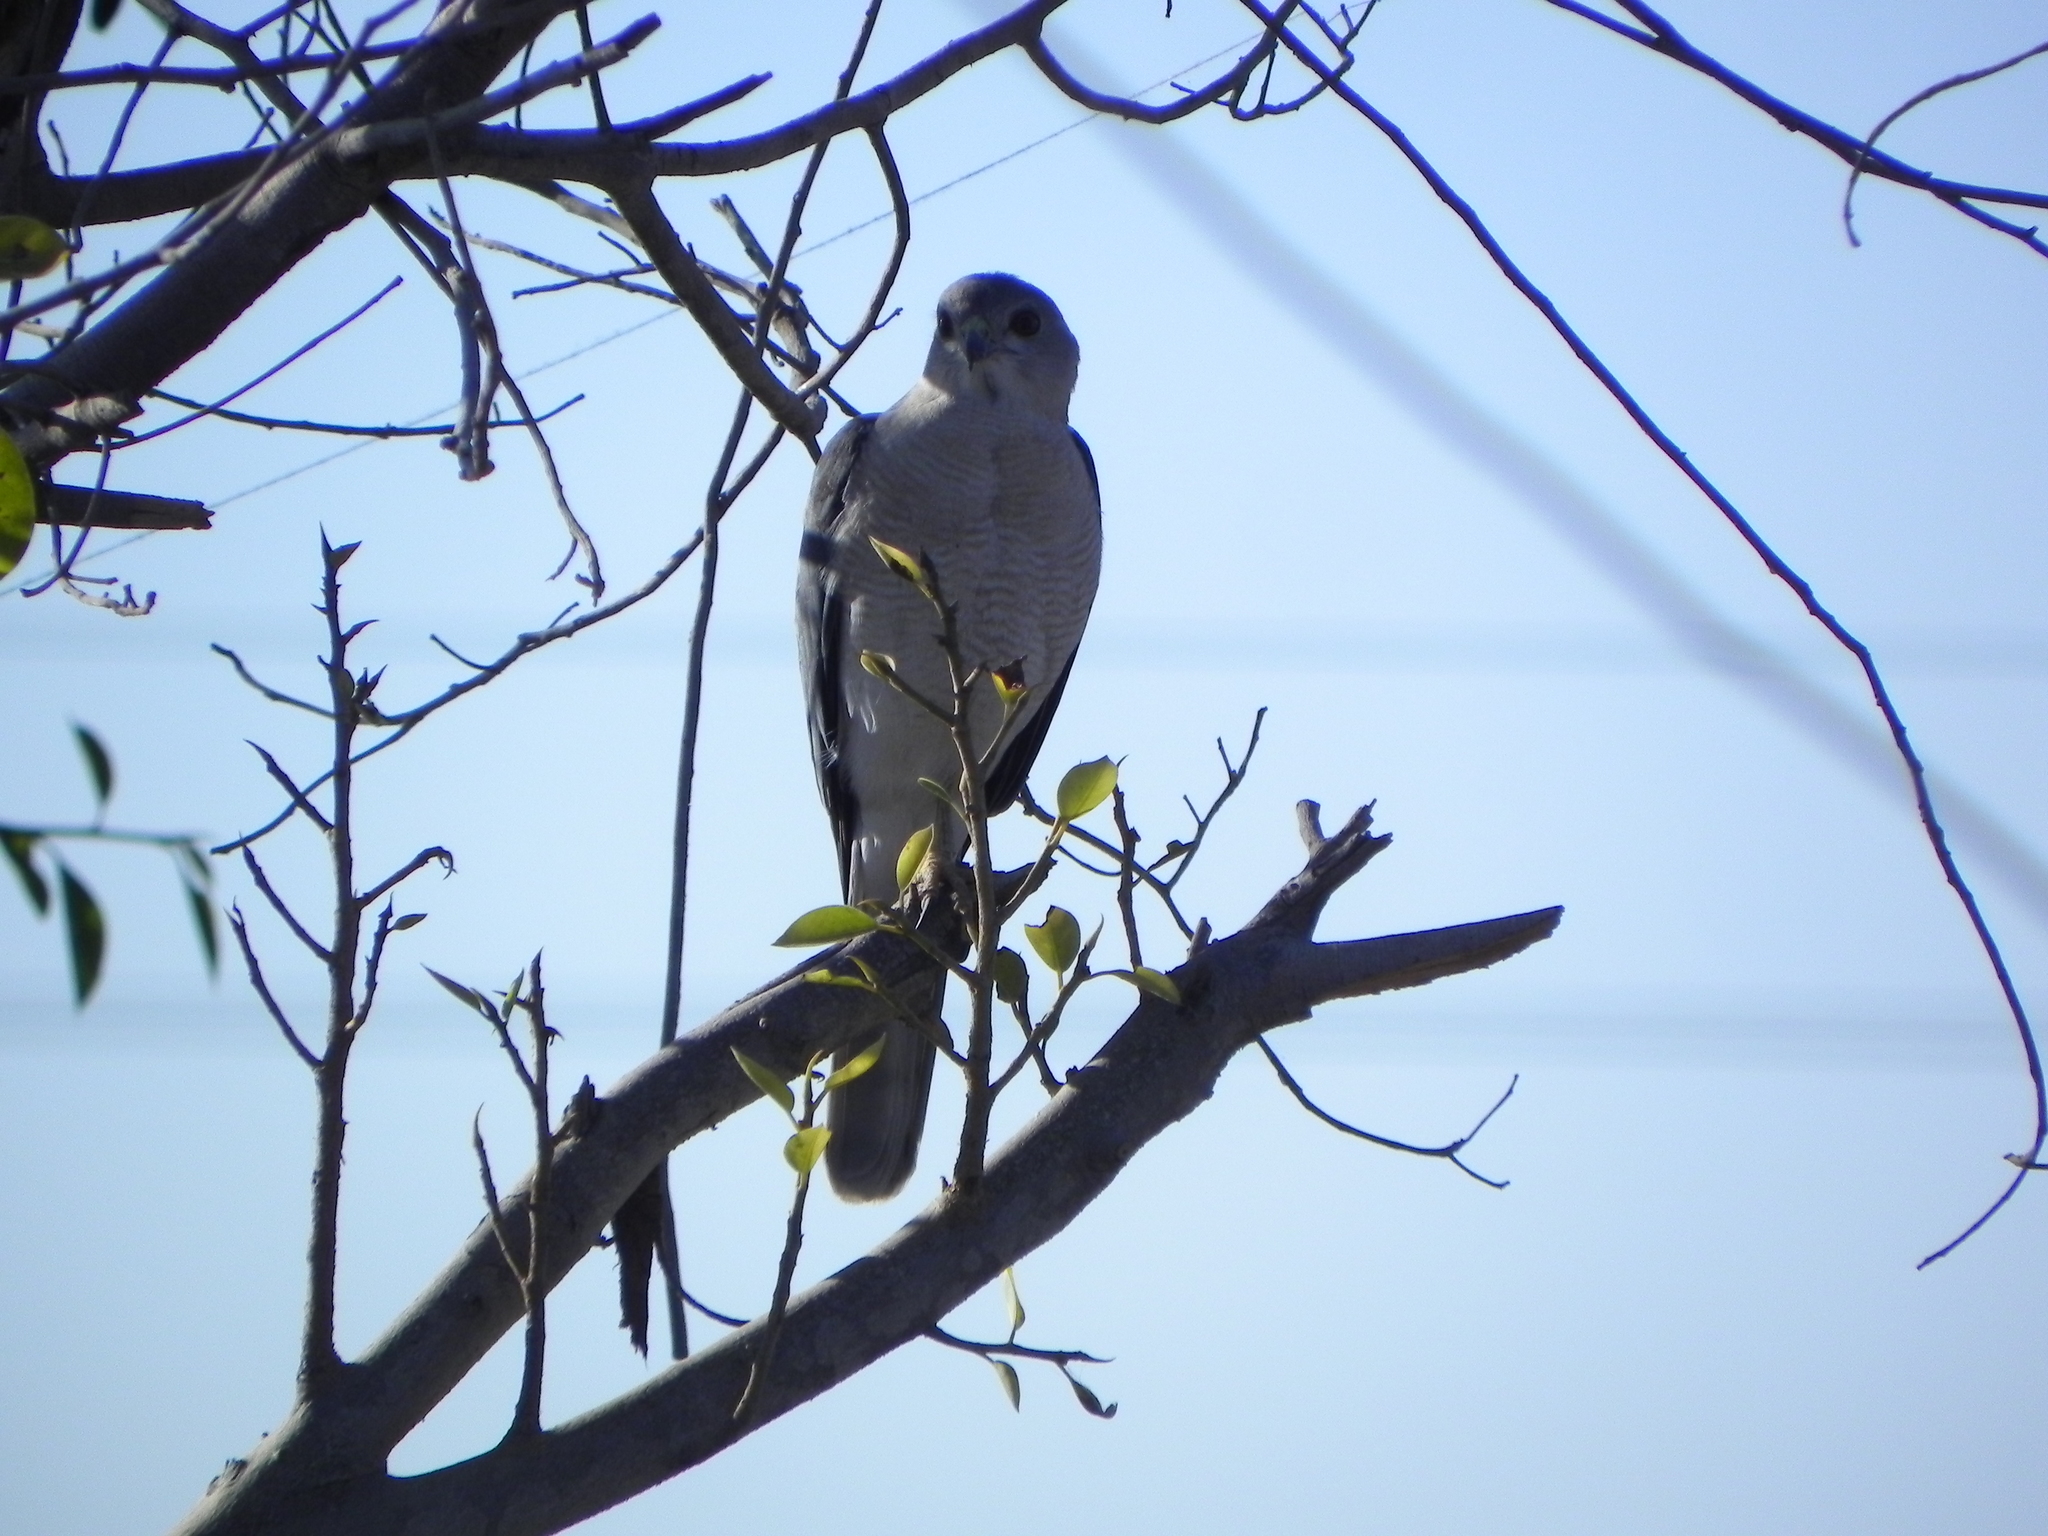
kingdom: Animalia
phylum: Chordata
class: Aves
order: Accipitriformes
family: Accipitridae
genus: Accipiter
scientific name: Accipiter badius
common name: Shikra
